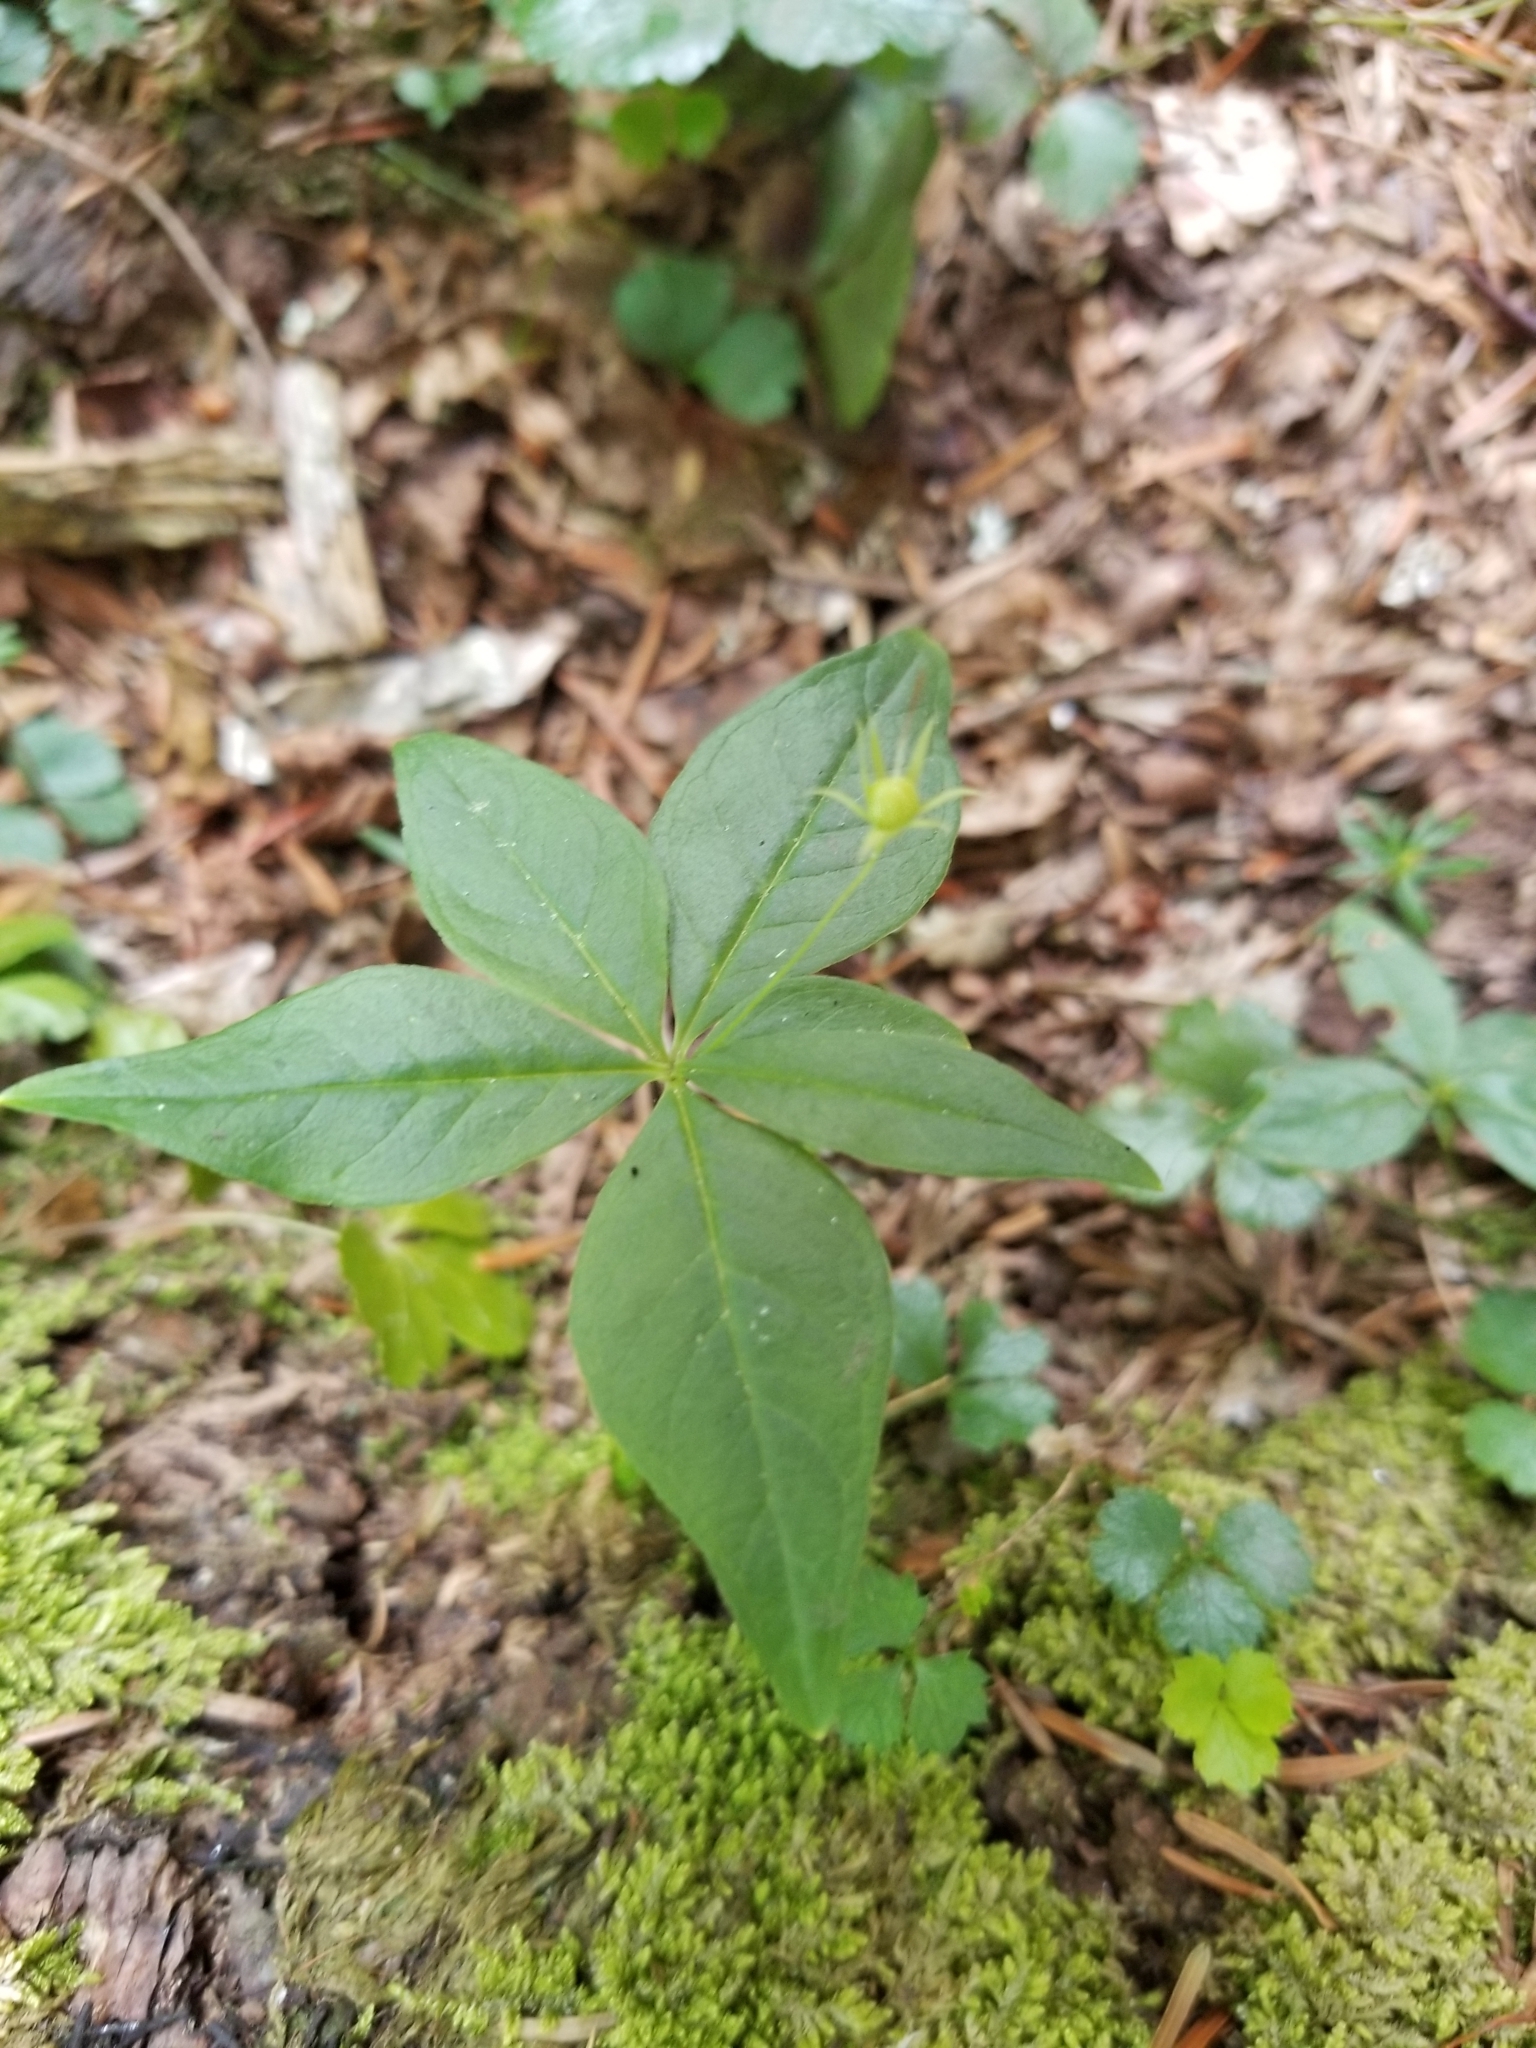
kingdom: Plantae
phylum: Tracheophyta
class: Magnoliopsida
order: Ericales
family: Primulaceae
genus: Lysimachia
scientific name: Lysimachia borealis
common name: American starflower
